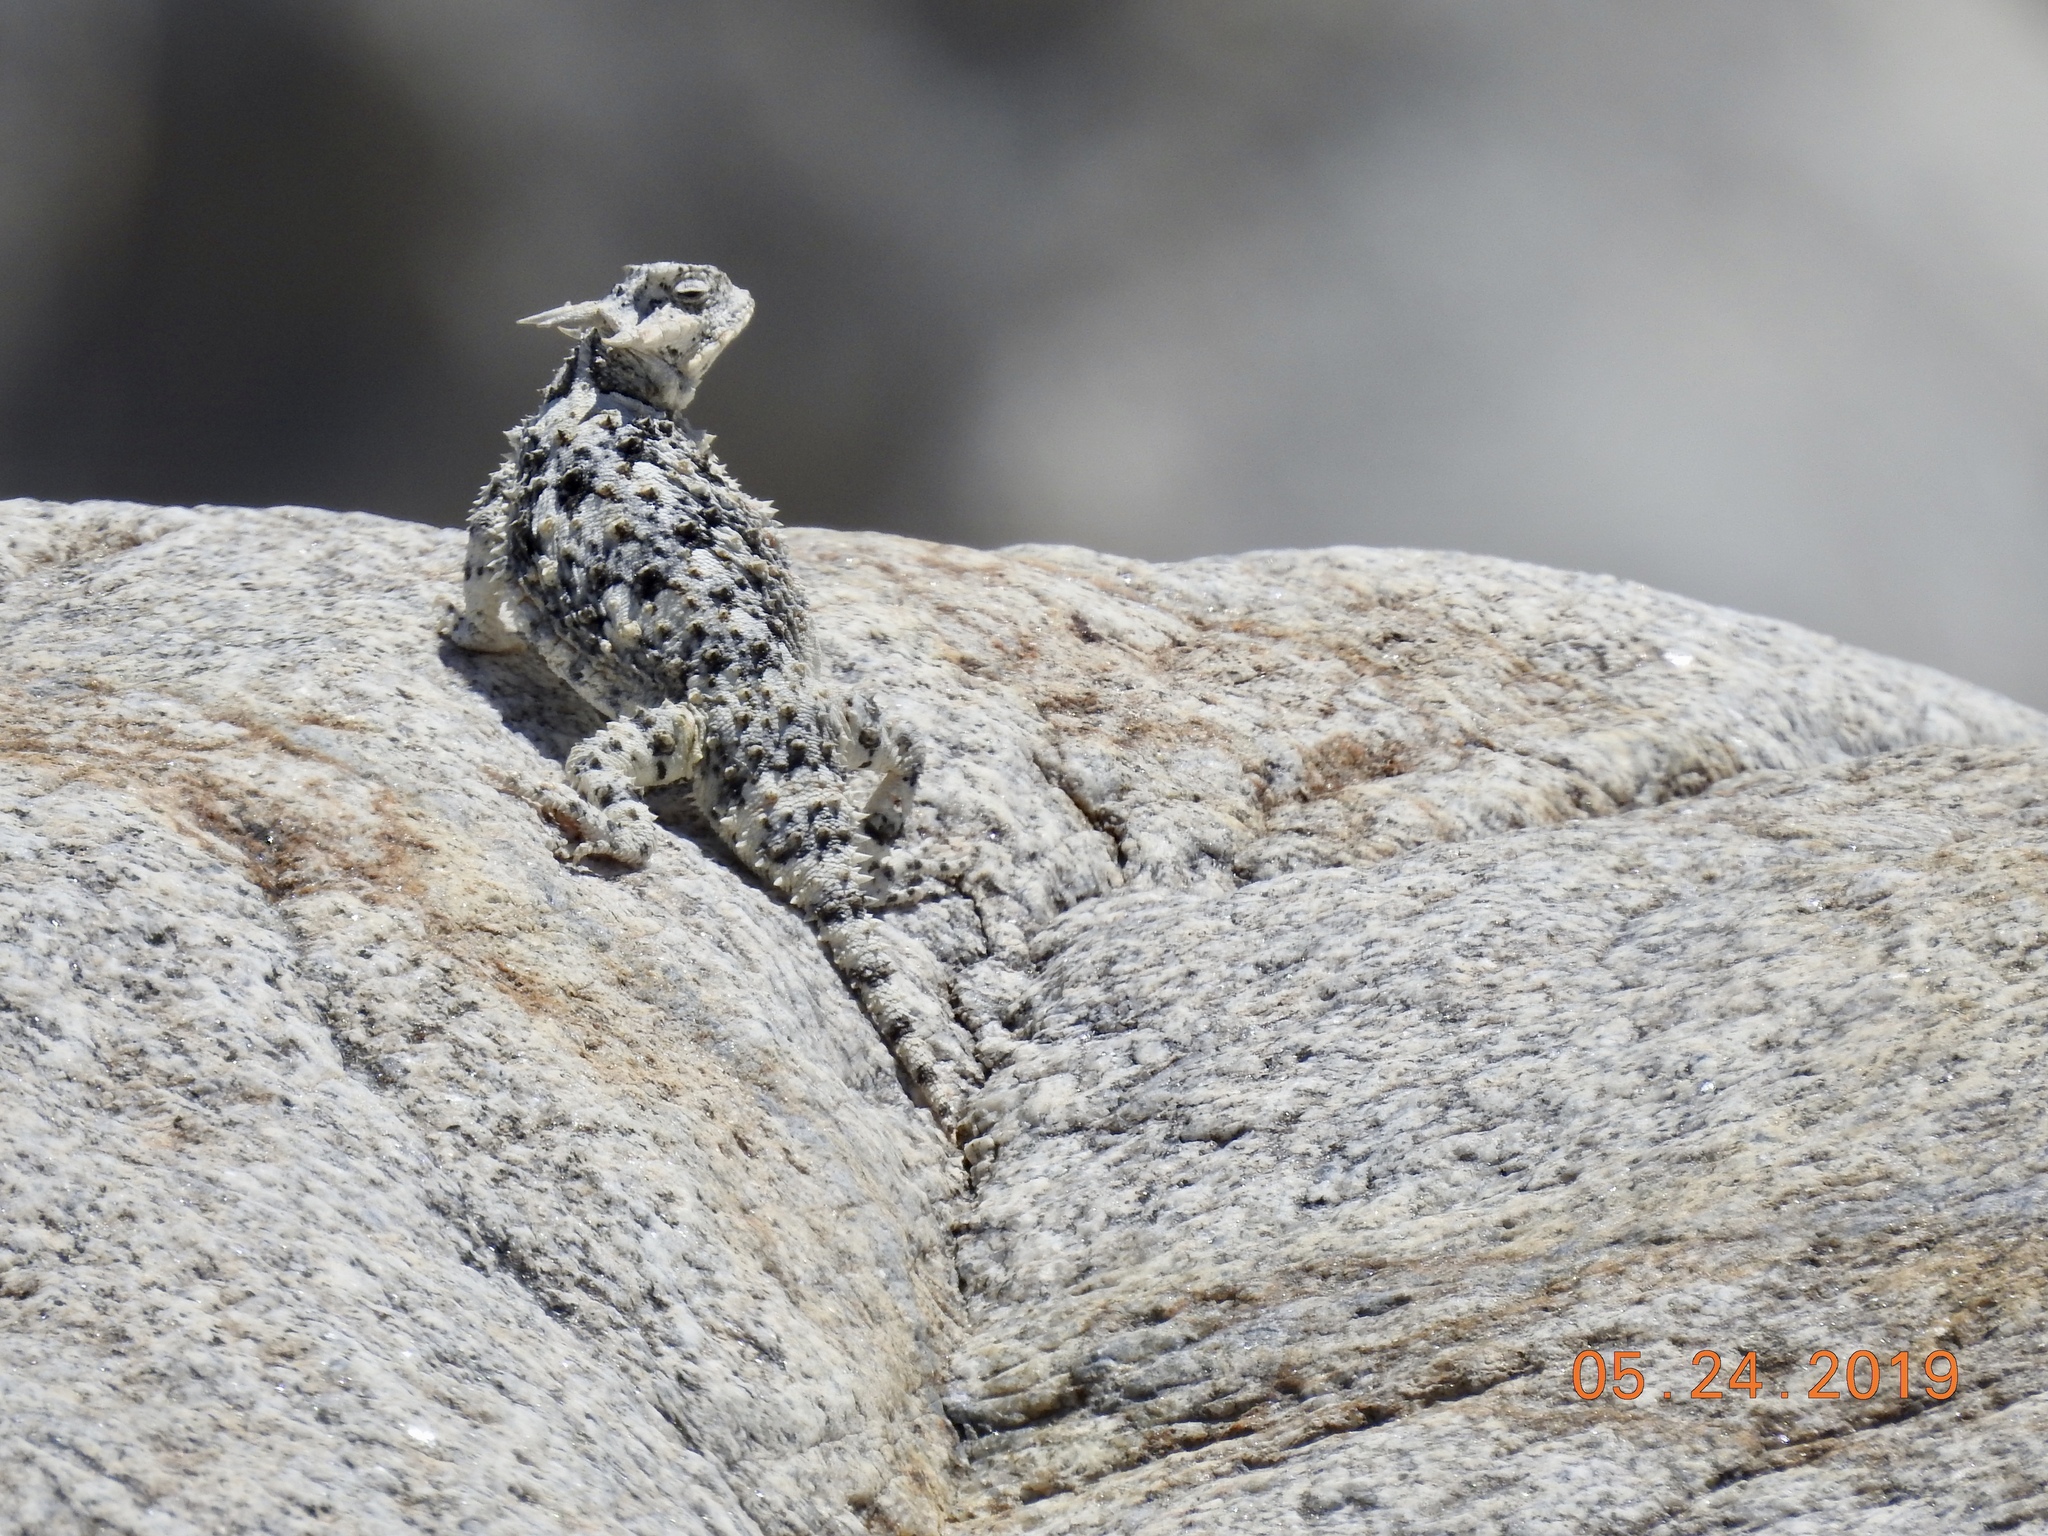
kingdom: Animalia
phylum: Chordata
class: Squamata
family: Phrynosomatidae
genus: Phrynosoma
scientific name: Phrynosoma platyrhinos
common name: Desert horned lizard
